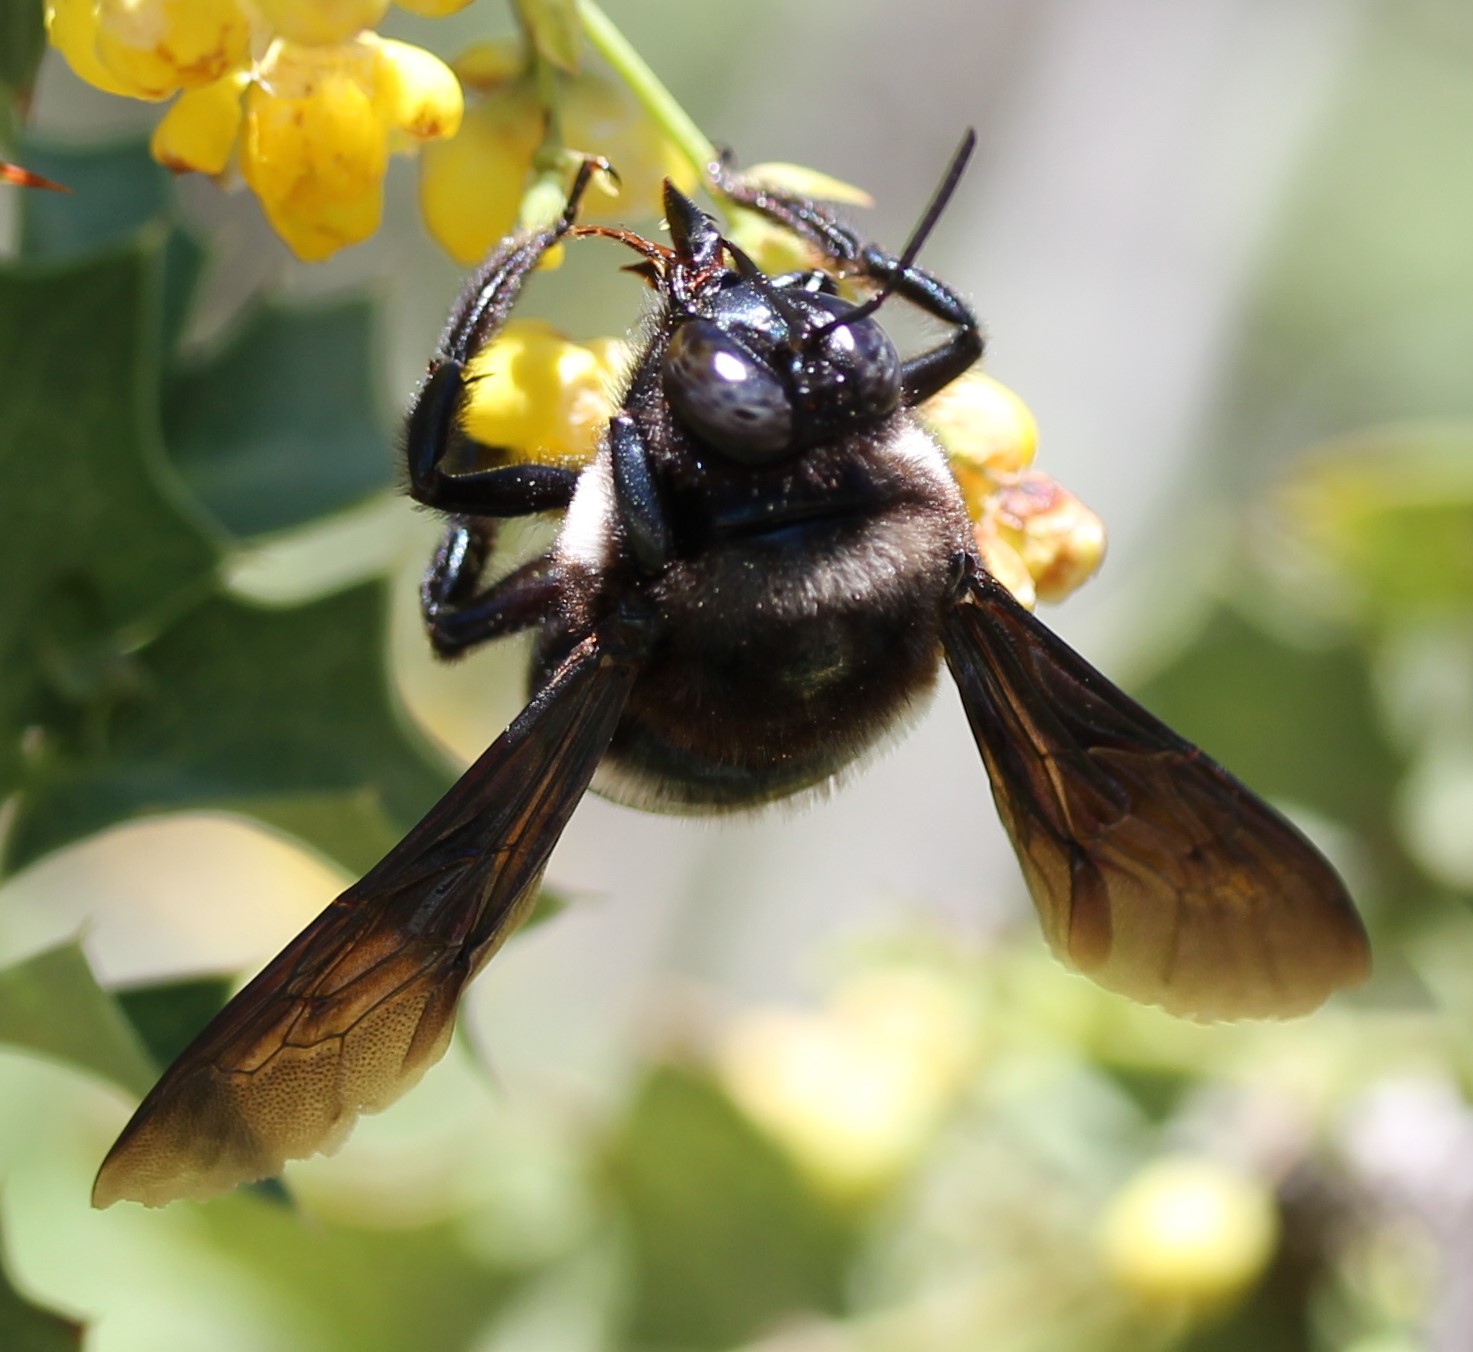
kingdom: Animalia
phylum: Arthropoda
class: Insecta
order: Hymenoptera
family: Apidae
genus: Xylocopa
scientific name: Xylocopa californica
